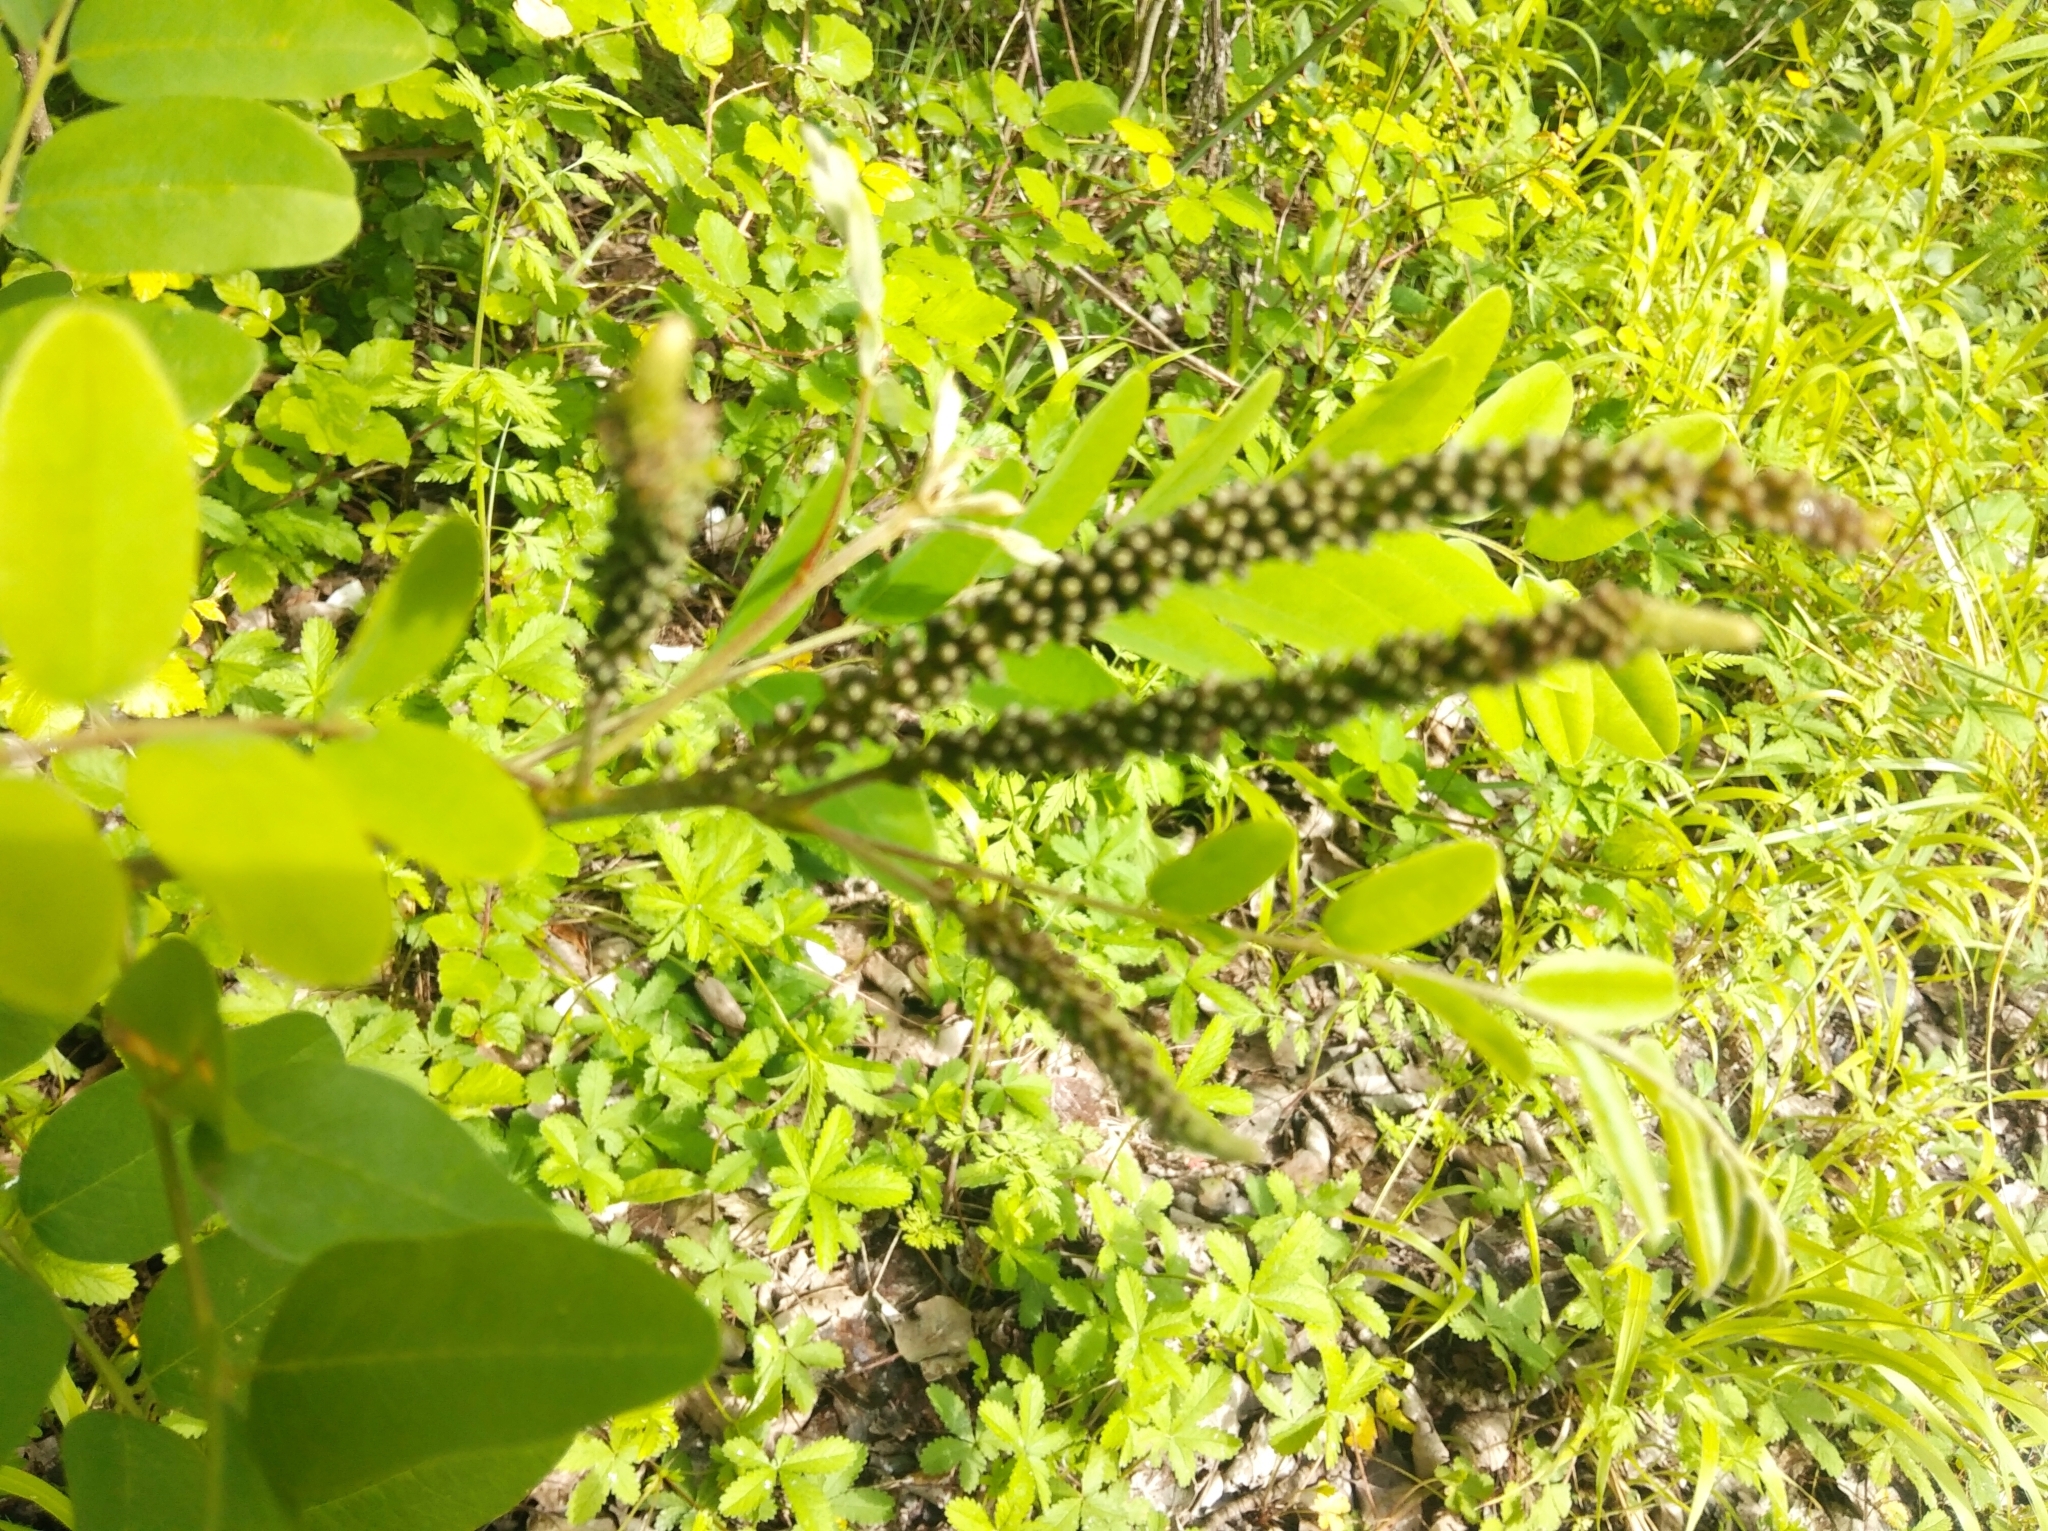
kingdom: Plantae
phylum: Tracheophyta
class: Magnoliopsida
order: Fabales
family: Fabaceae
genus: Amorpha
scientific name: Amorpha fruticosa
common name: False indigo
